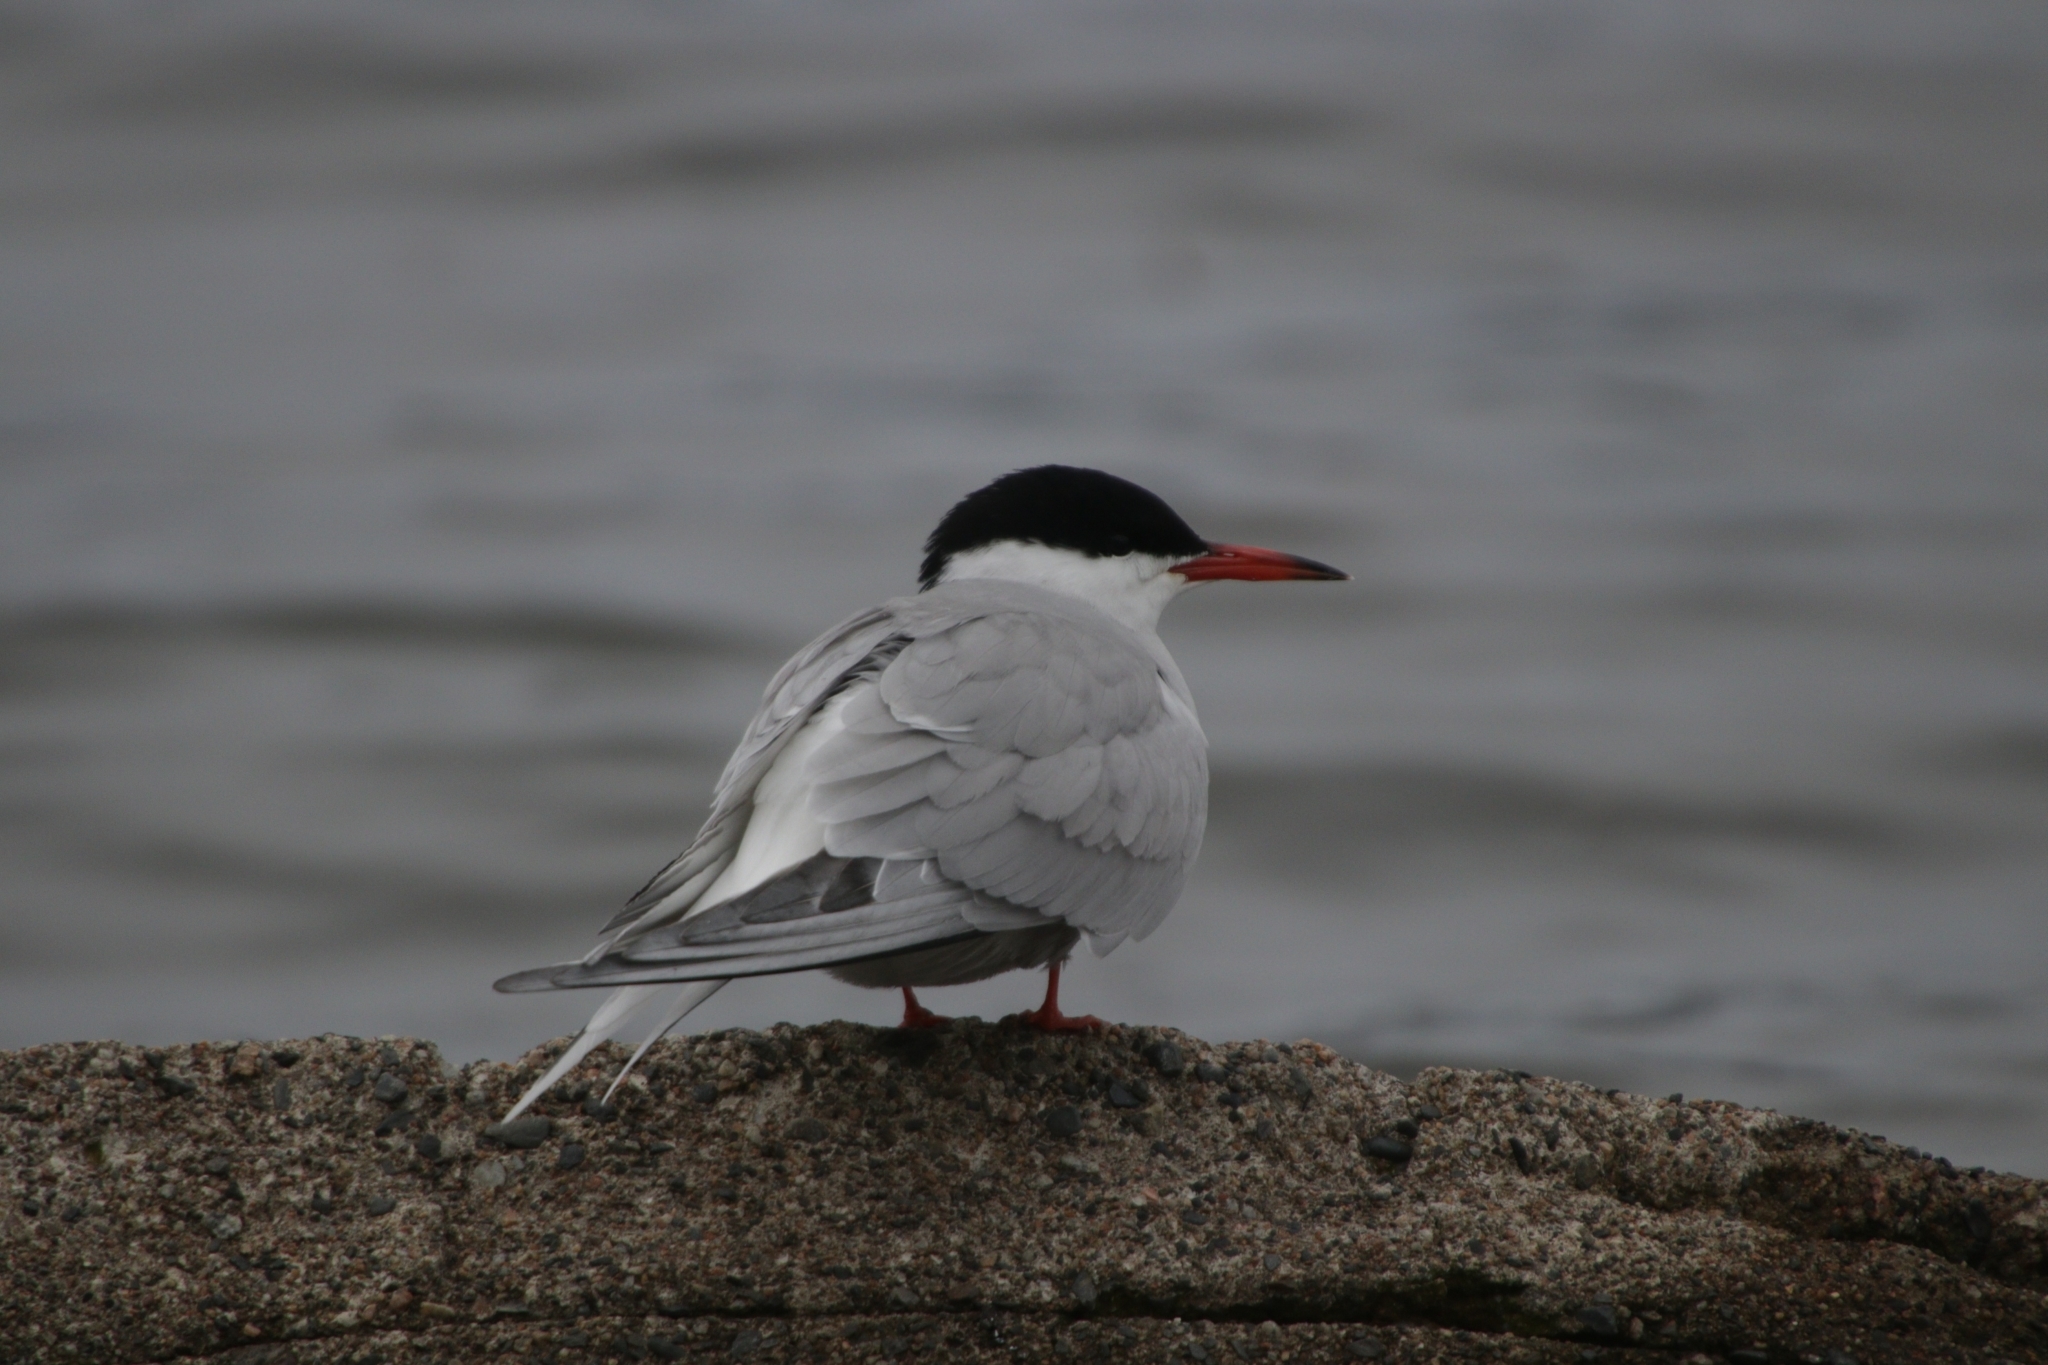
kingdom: Animalia
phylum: Chordata
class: Aves
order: Charadriiformes
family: Laridae
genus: Sterna
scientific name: Sterna hirundo
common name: Common tern
